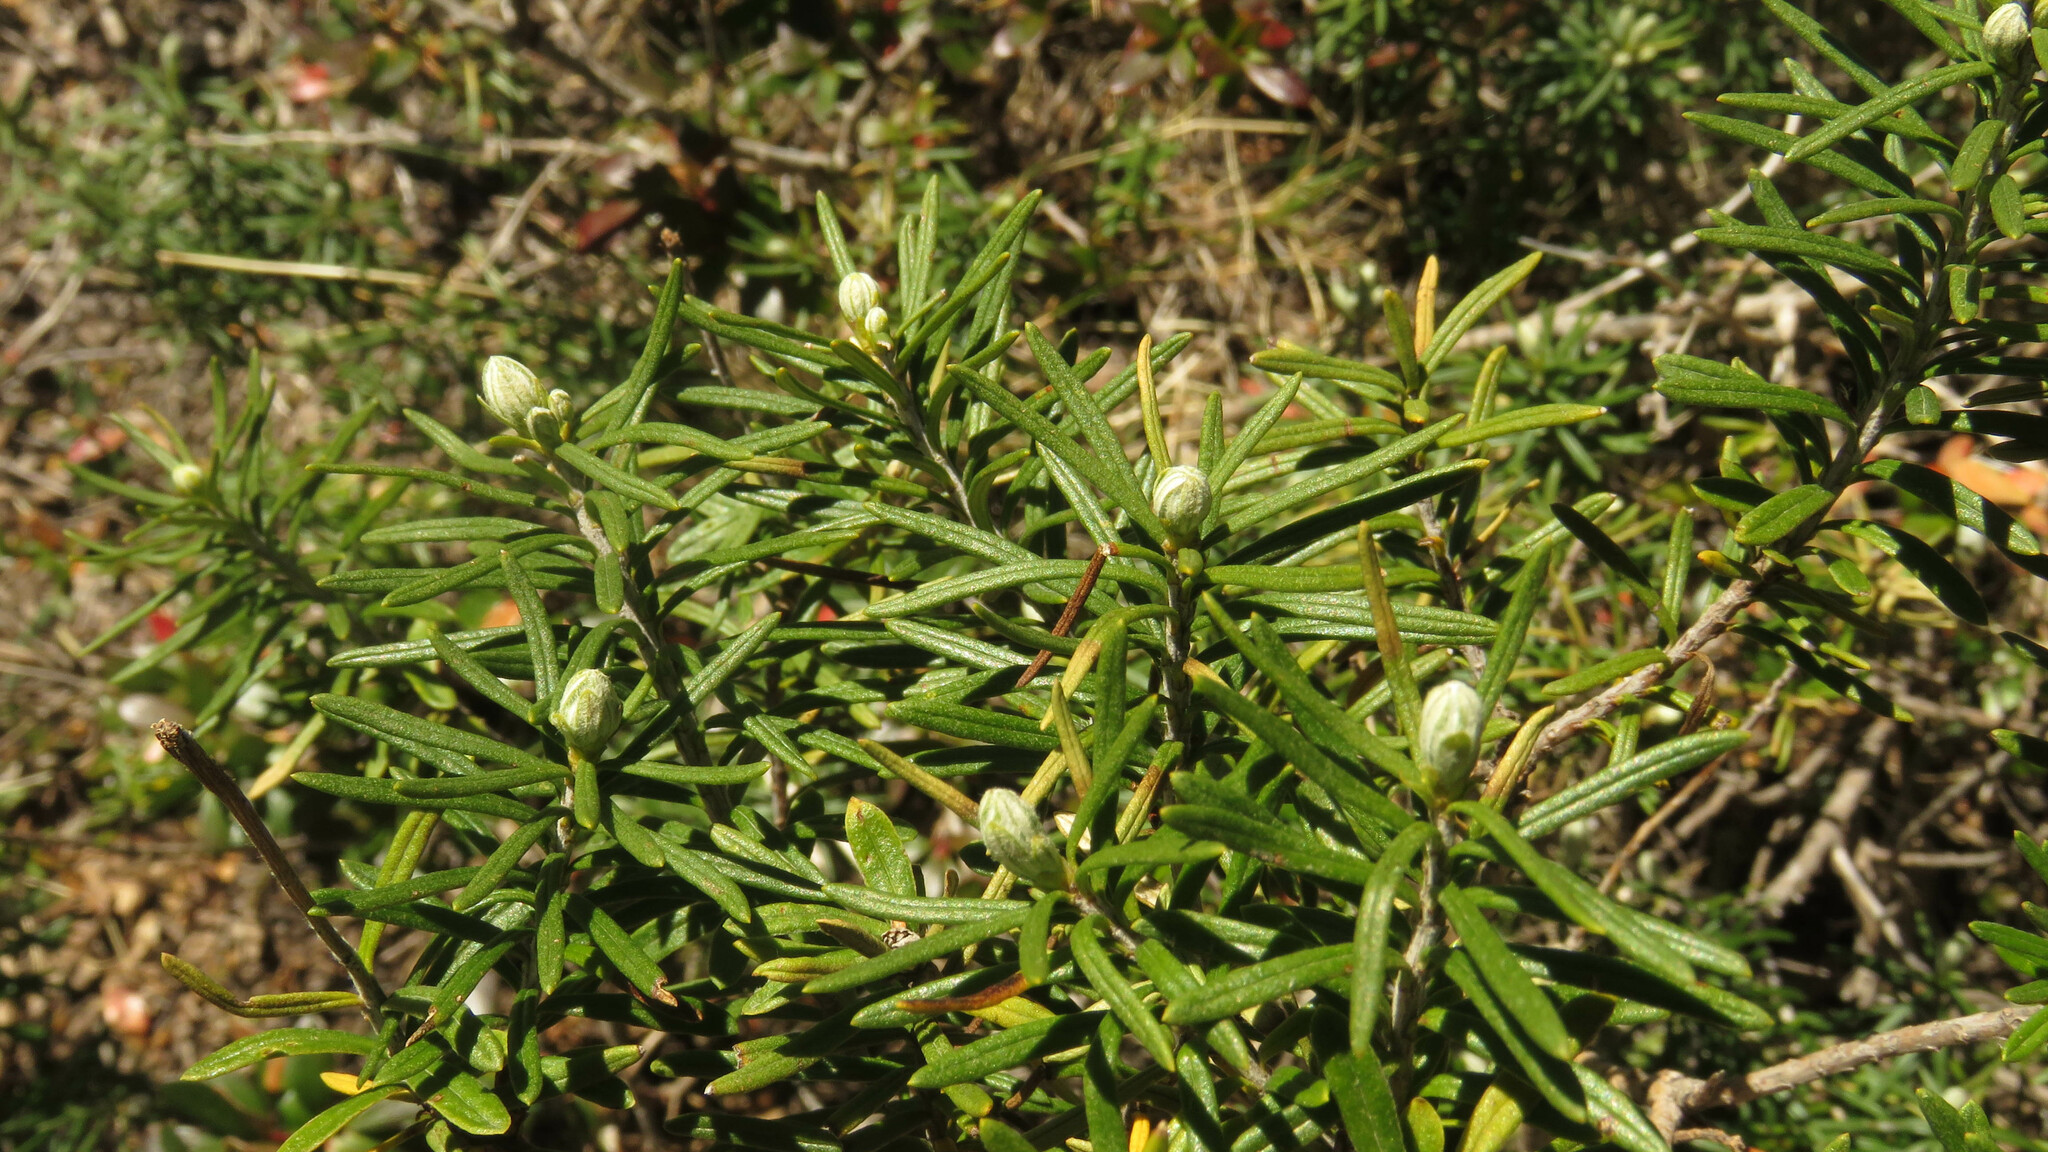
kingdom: Plantae
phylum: Tracheophyta
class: Magnoliopsida
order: Asterales
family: Asteraceae
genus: Chiliotrichum
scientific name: Chiliotrichum diffusum
